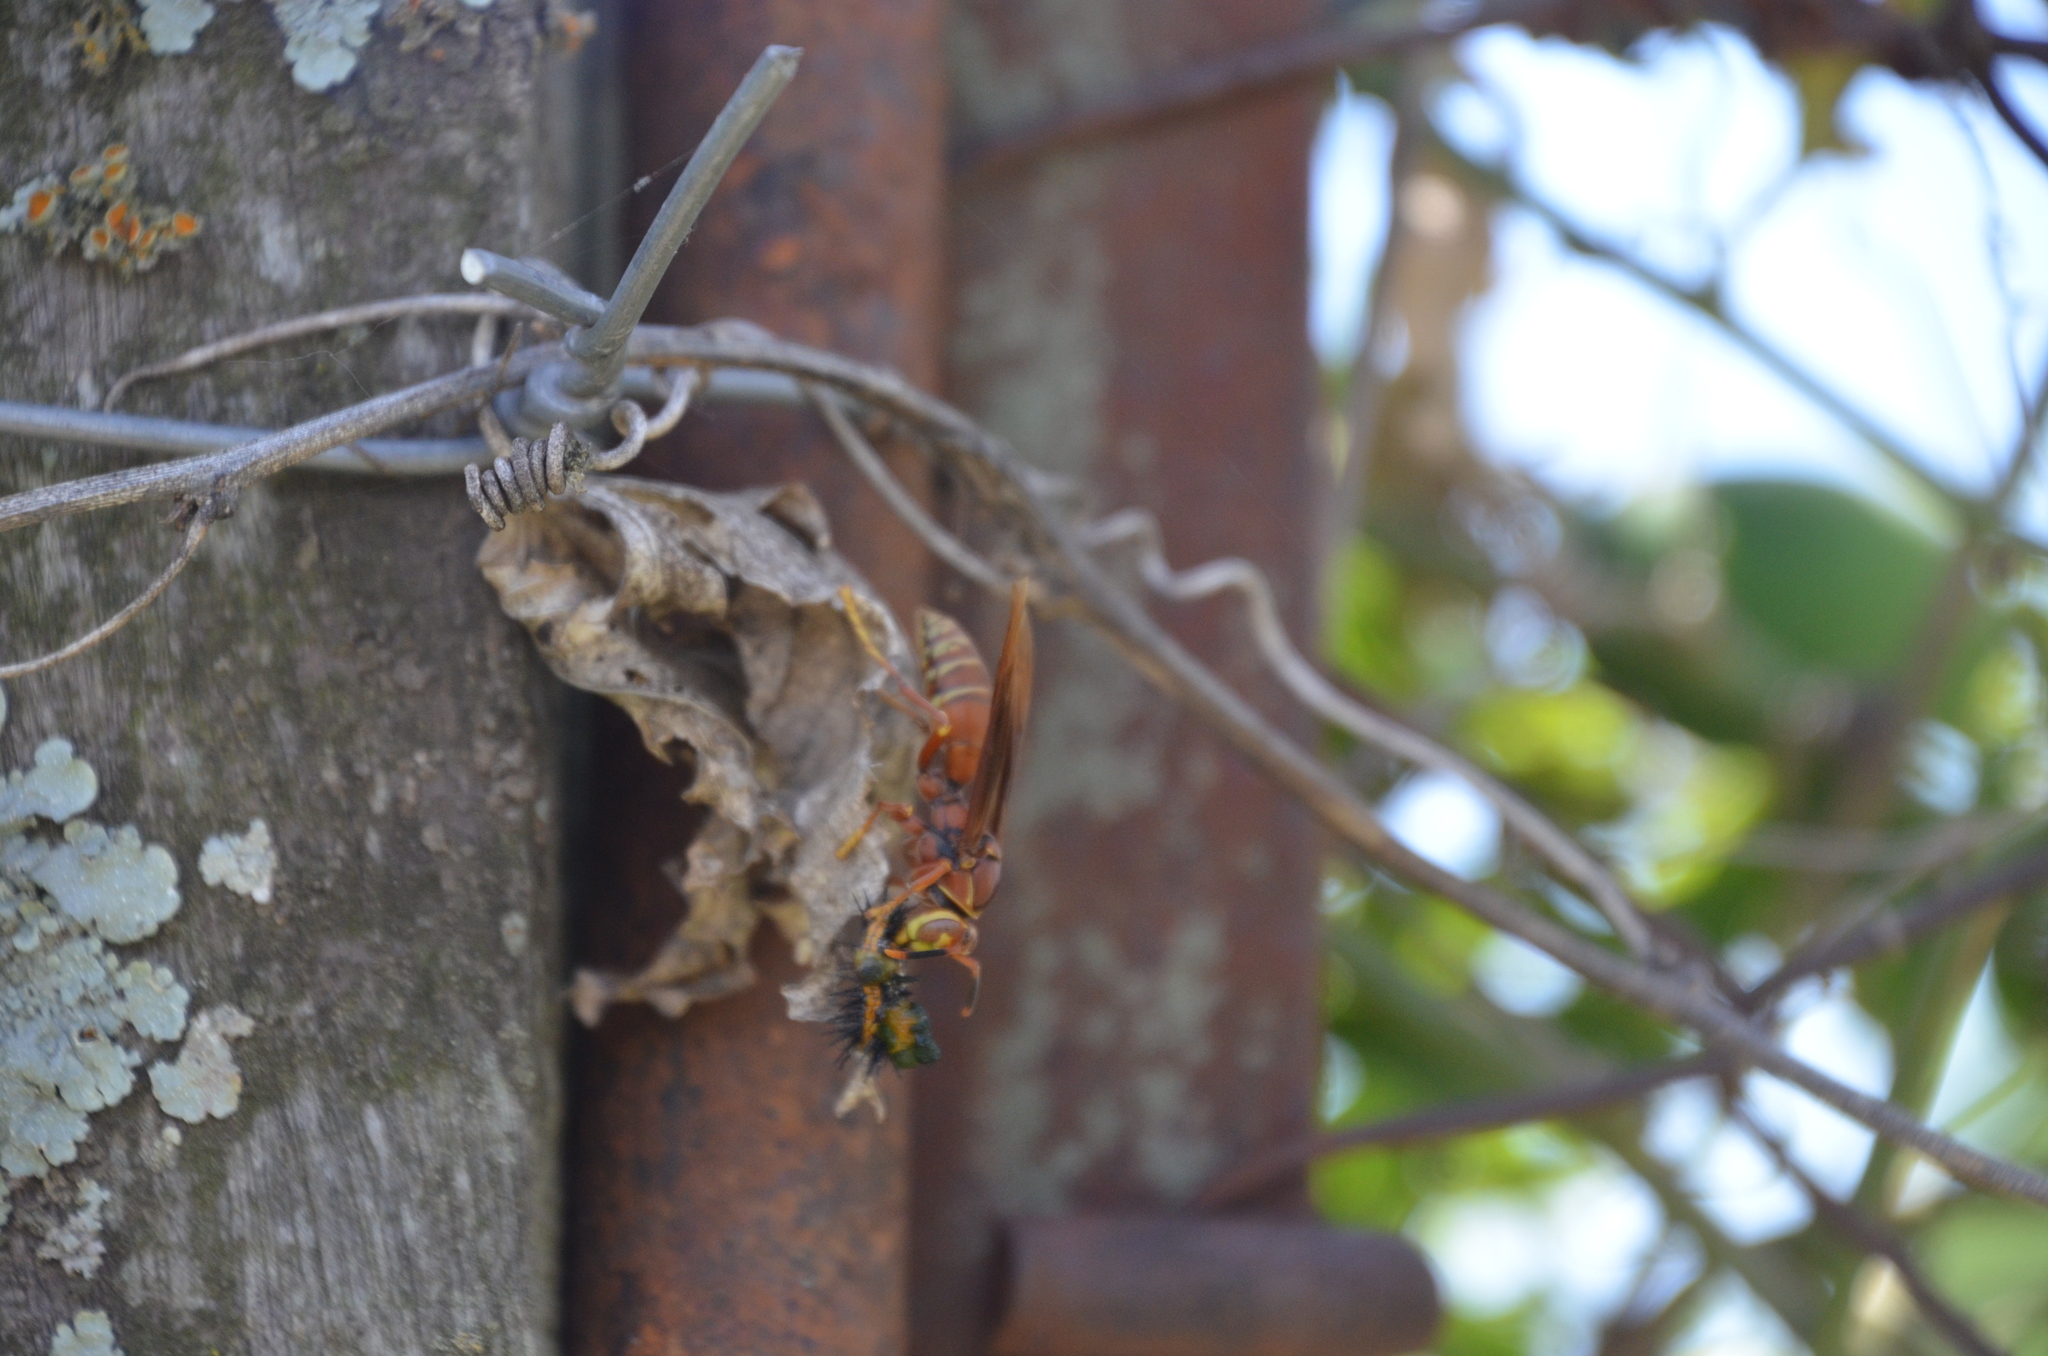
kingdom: Animalia
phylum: Arthropoda
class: Insecta
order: Hymenoptera
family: Eumenidae
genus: Polistes
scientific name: Polistes cavapyta
